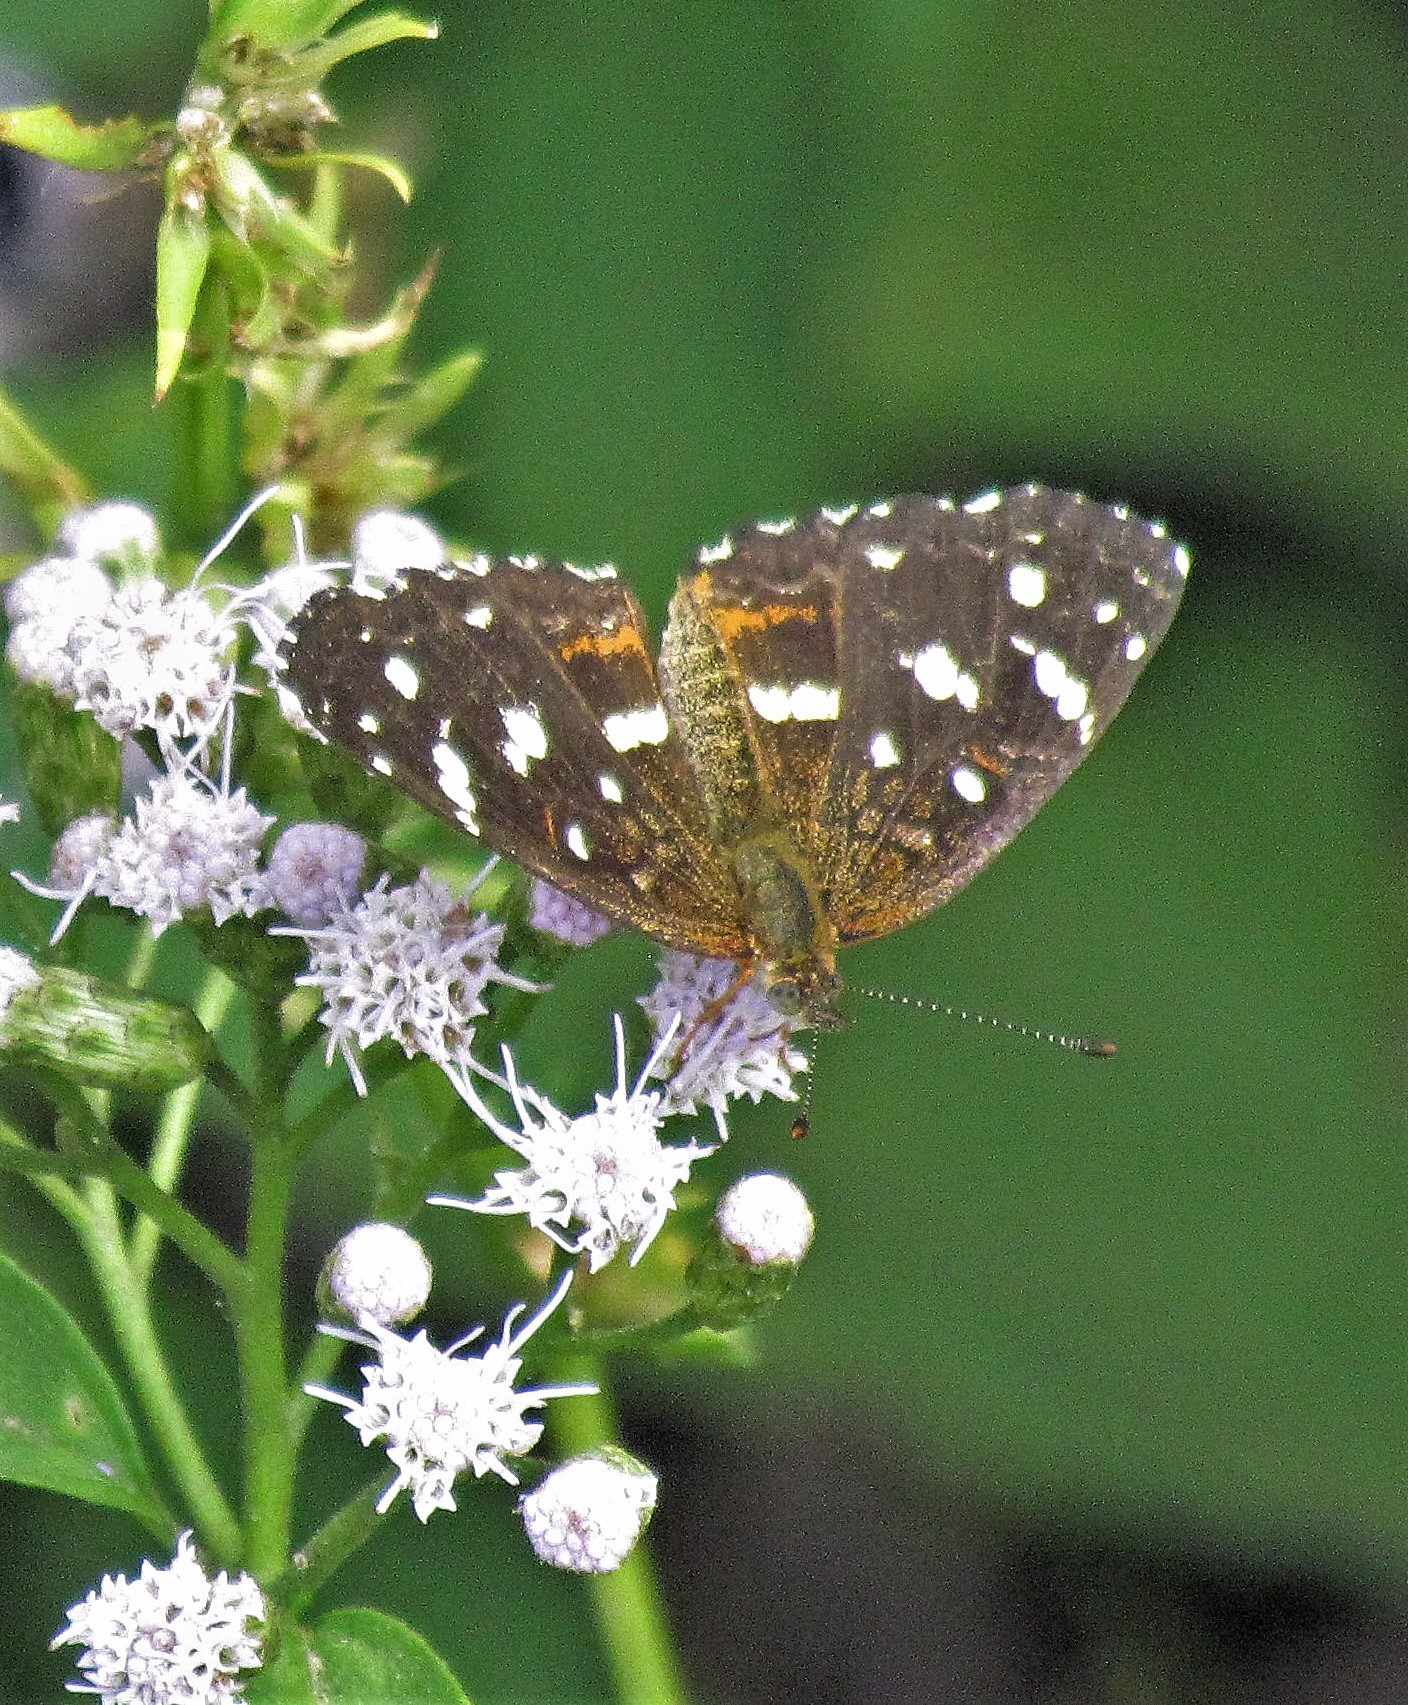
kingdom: Animalia
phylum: Arthropoda
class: Insecta
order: Lepidoptera
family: Nymphalidae
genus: Ortilia
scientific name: Ortilia ithra
